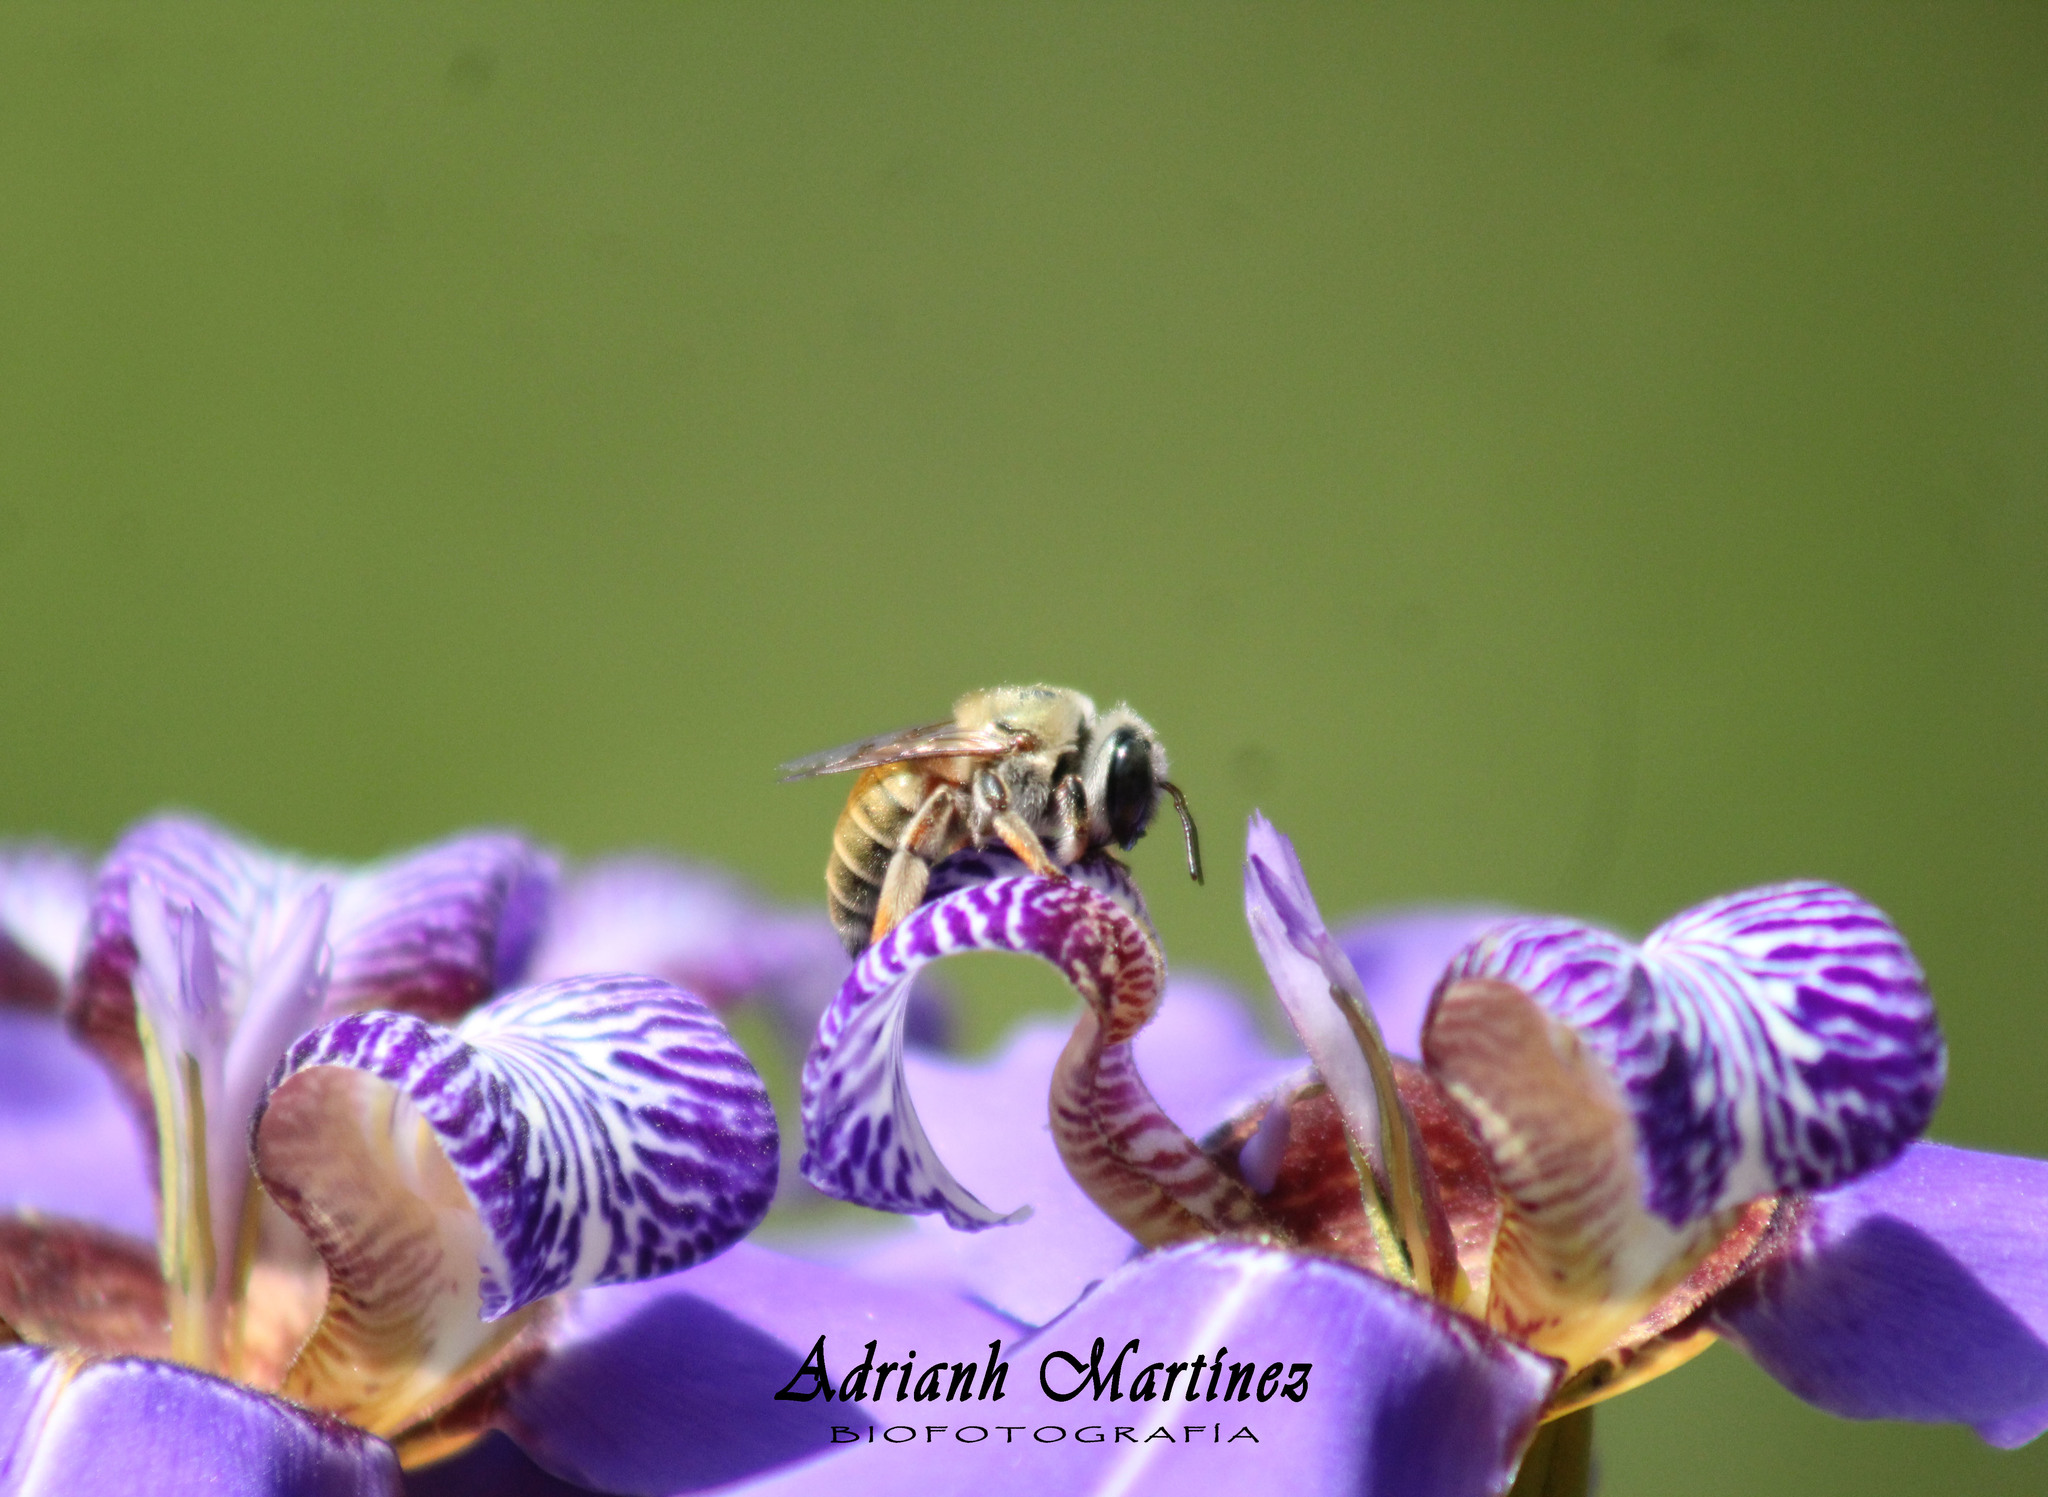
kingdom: Animalia
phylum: Arthropoda
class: Insecta
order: Hymenoptera
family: Apidae
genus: Xylocopa
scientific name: Xylocopa subvirescens
